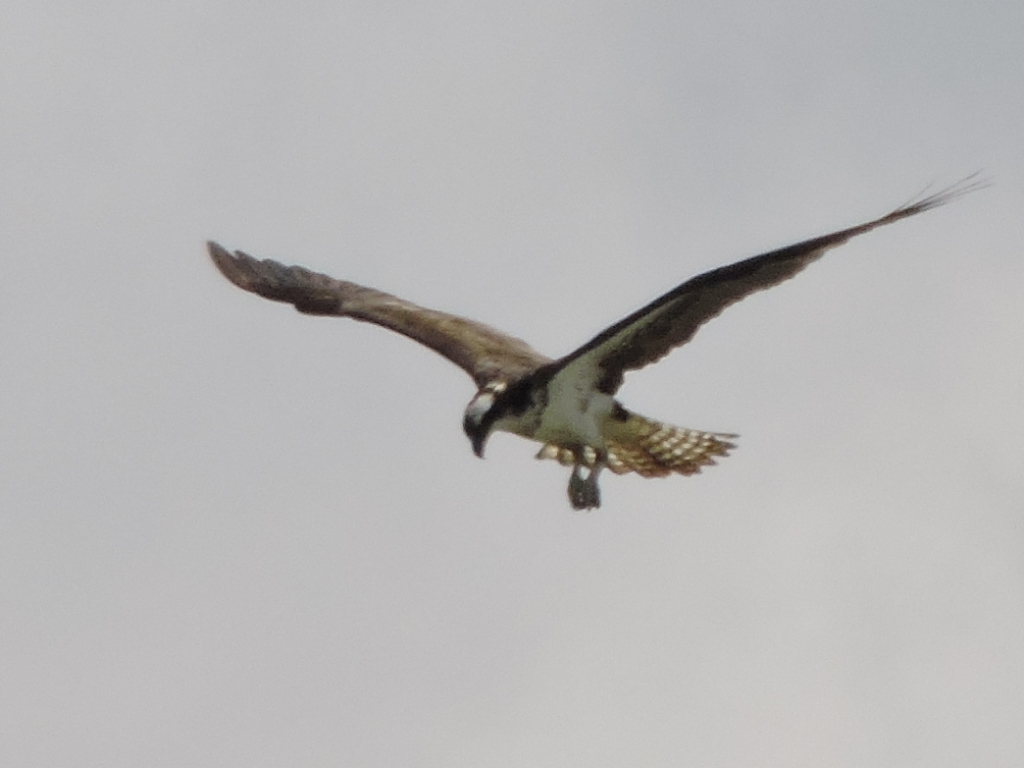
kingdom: Animalia
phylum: Chordata
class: Aves
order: Accipitriformes
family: Pandionidae
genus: Pandion
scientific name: Pandion haliaetus
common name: Osprey
